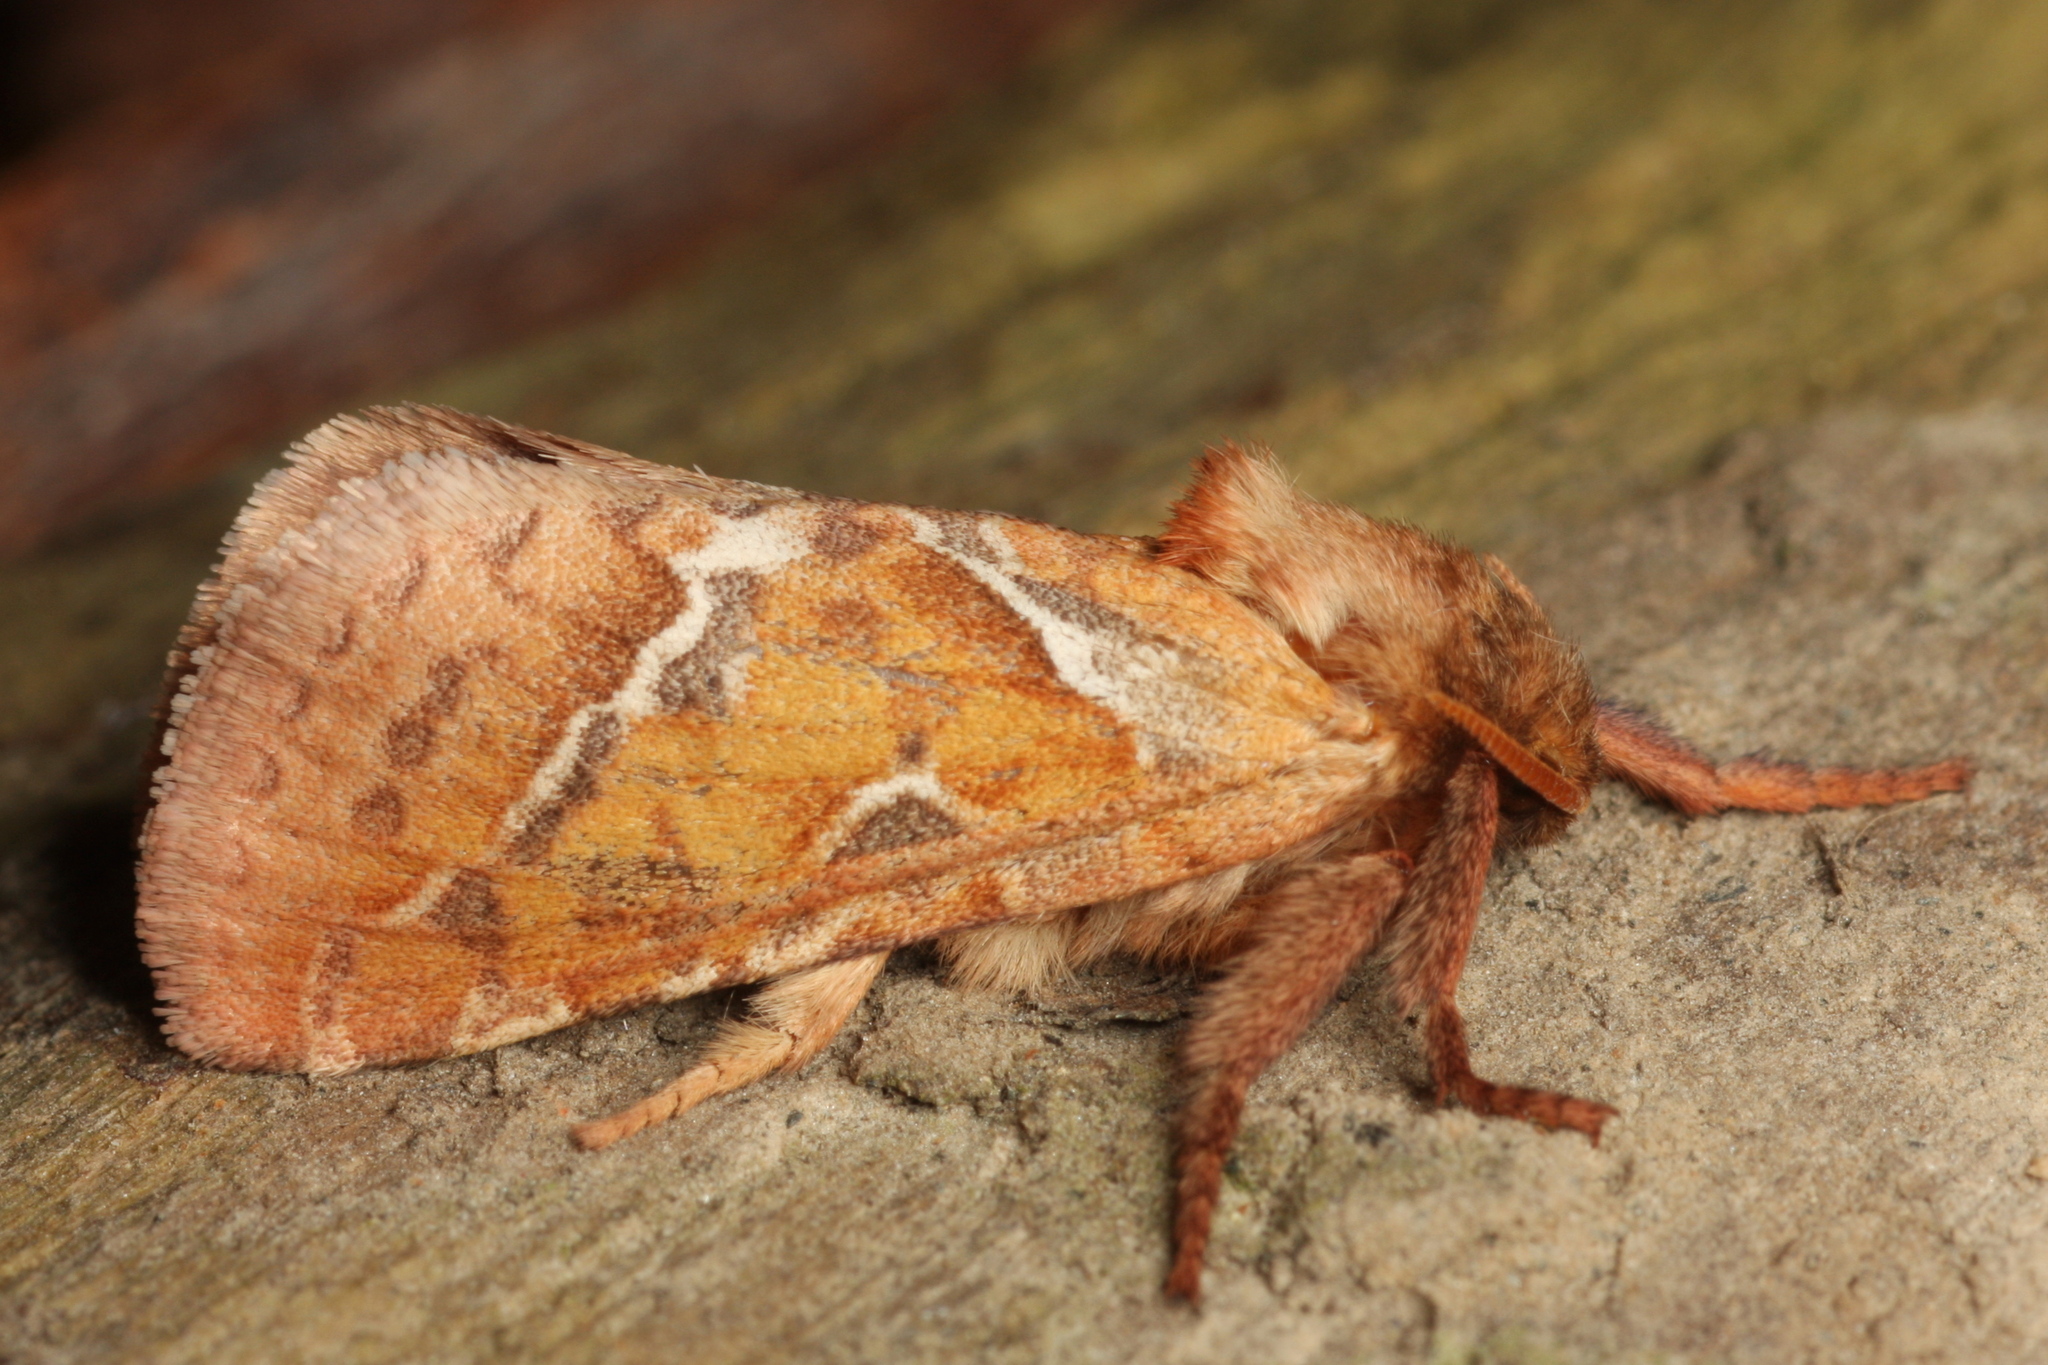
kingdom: Animalia
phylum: Arthropoda
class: Insecta
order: Lepidoptera
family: Hepialidae
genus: Triodia
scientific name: Triodia sylvina
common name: Orange swift
